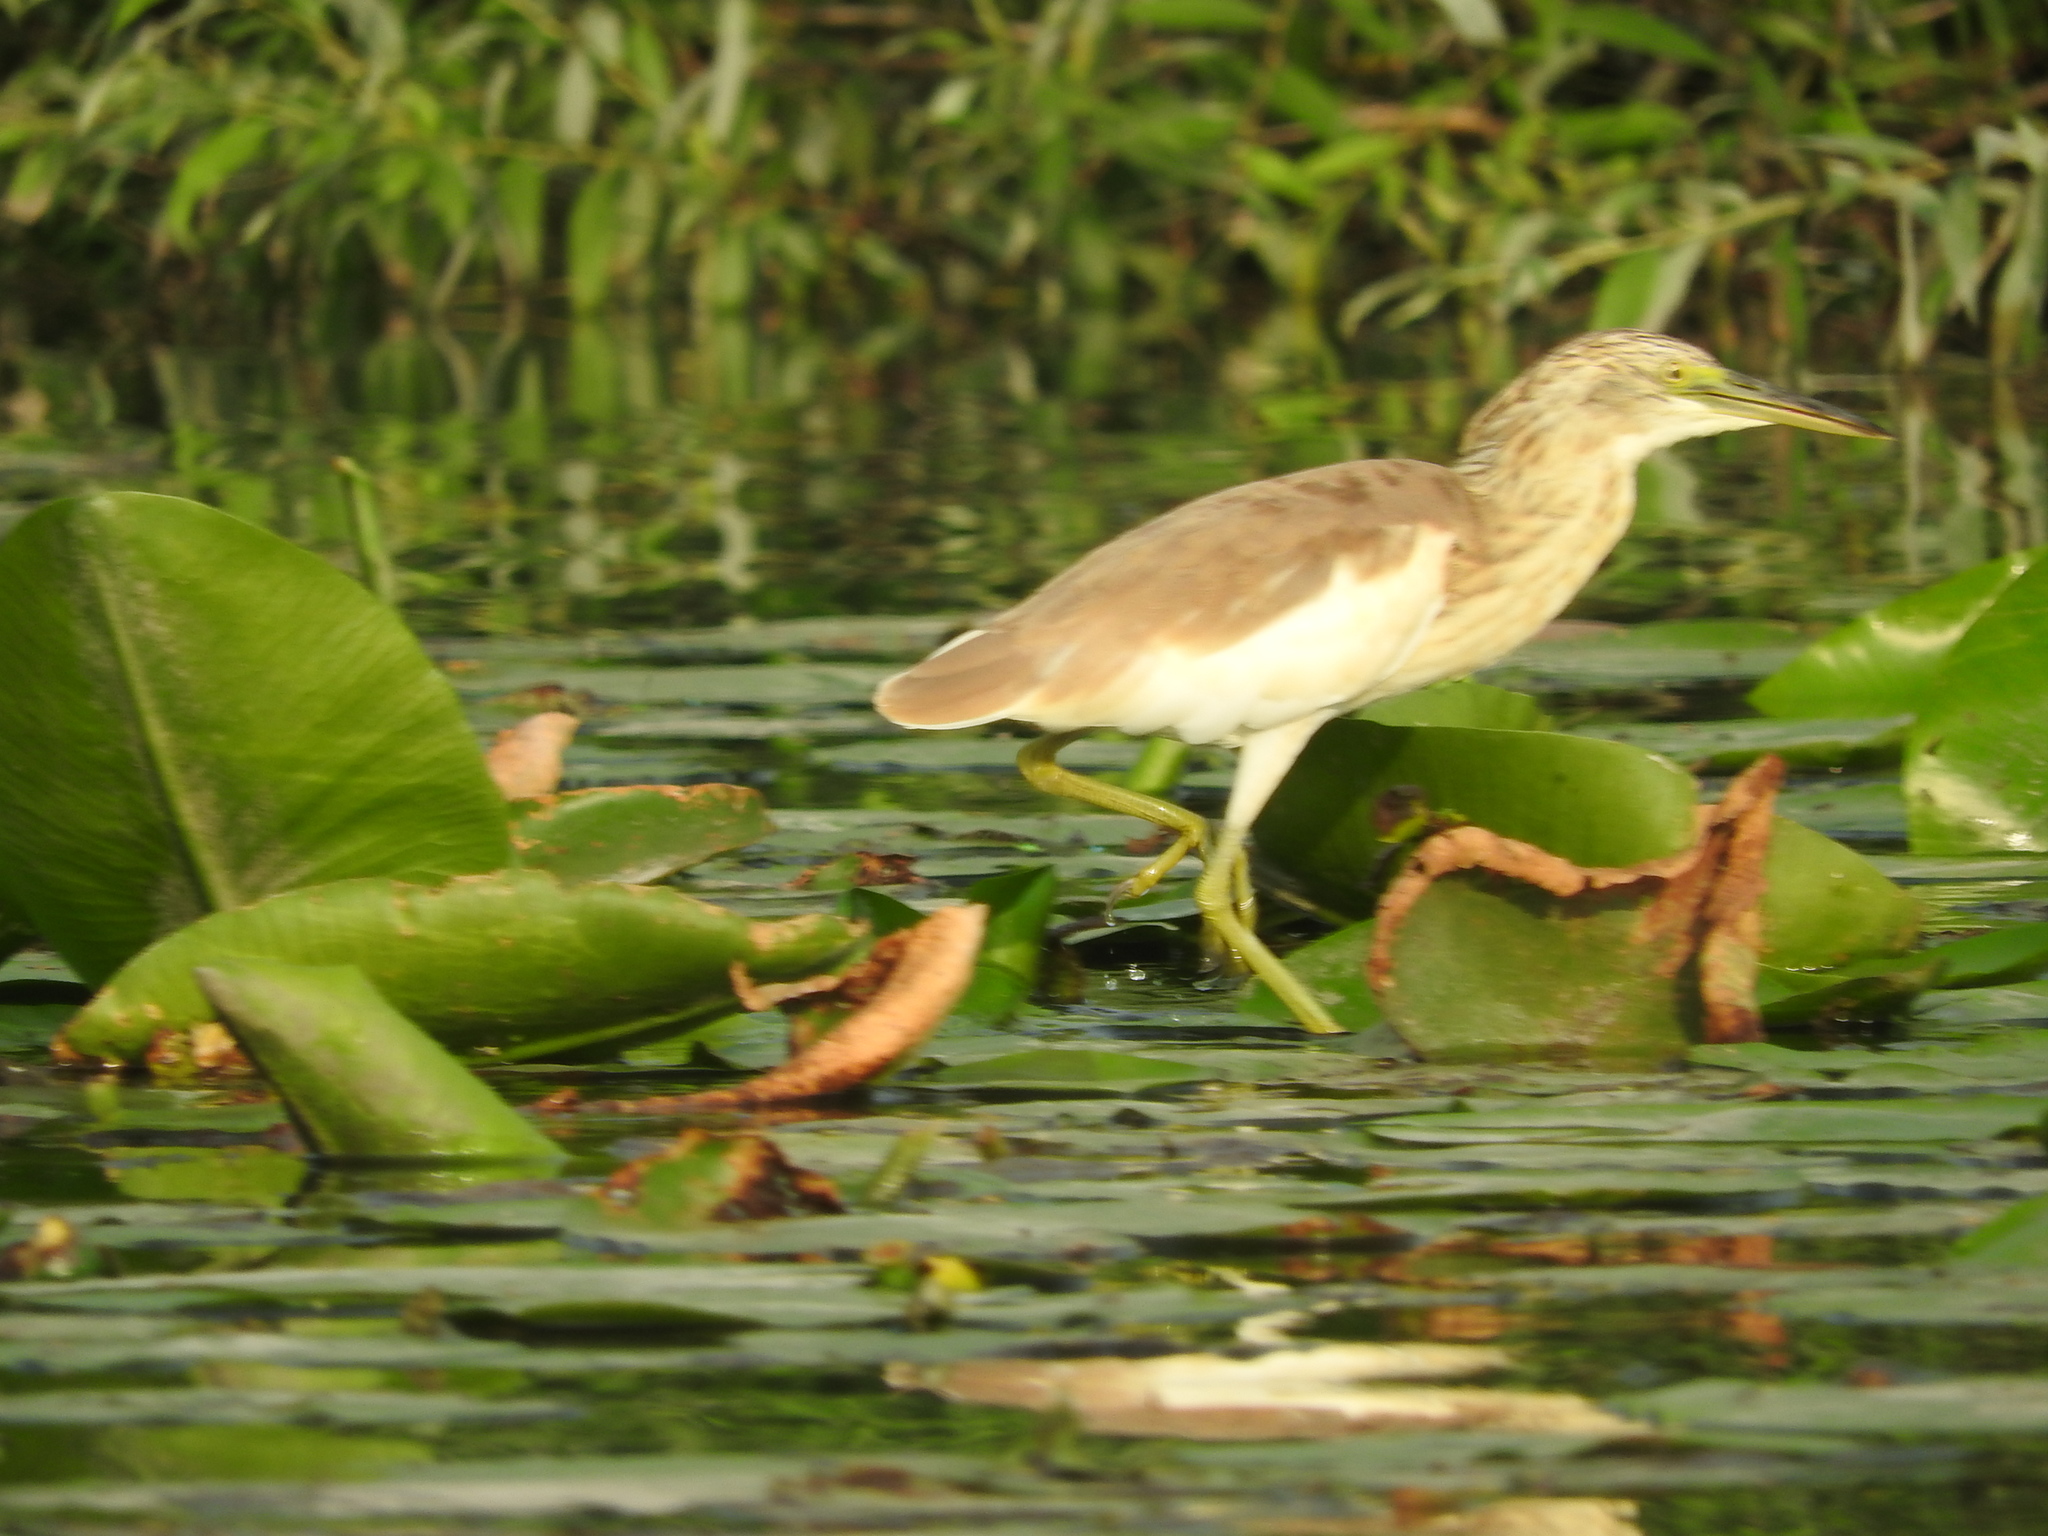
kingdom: Animalia
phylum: Chordata
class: Aves
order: Pelecaniformes
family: Ardeidae
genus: Ardeola
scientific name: Ardeola ralloides
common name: Squacco heron
